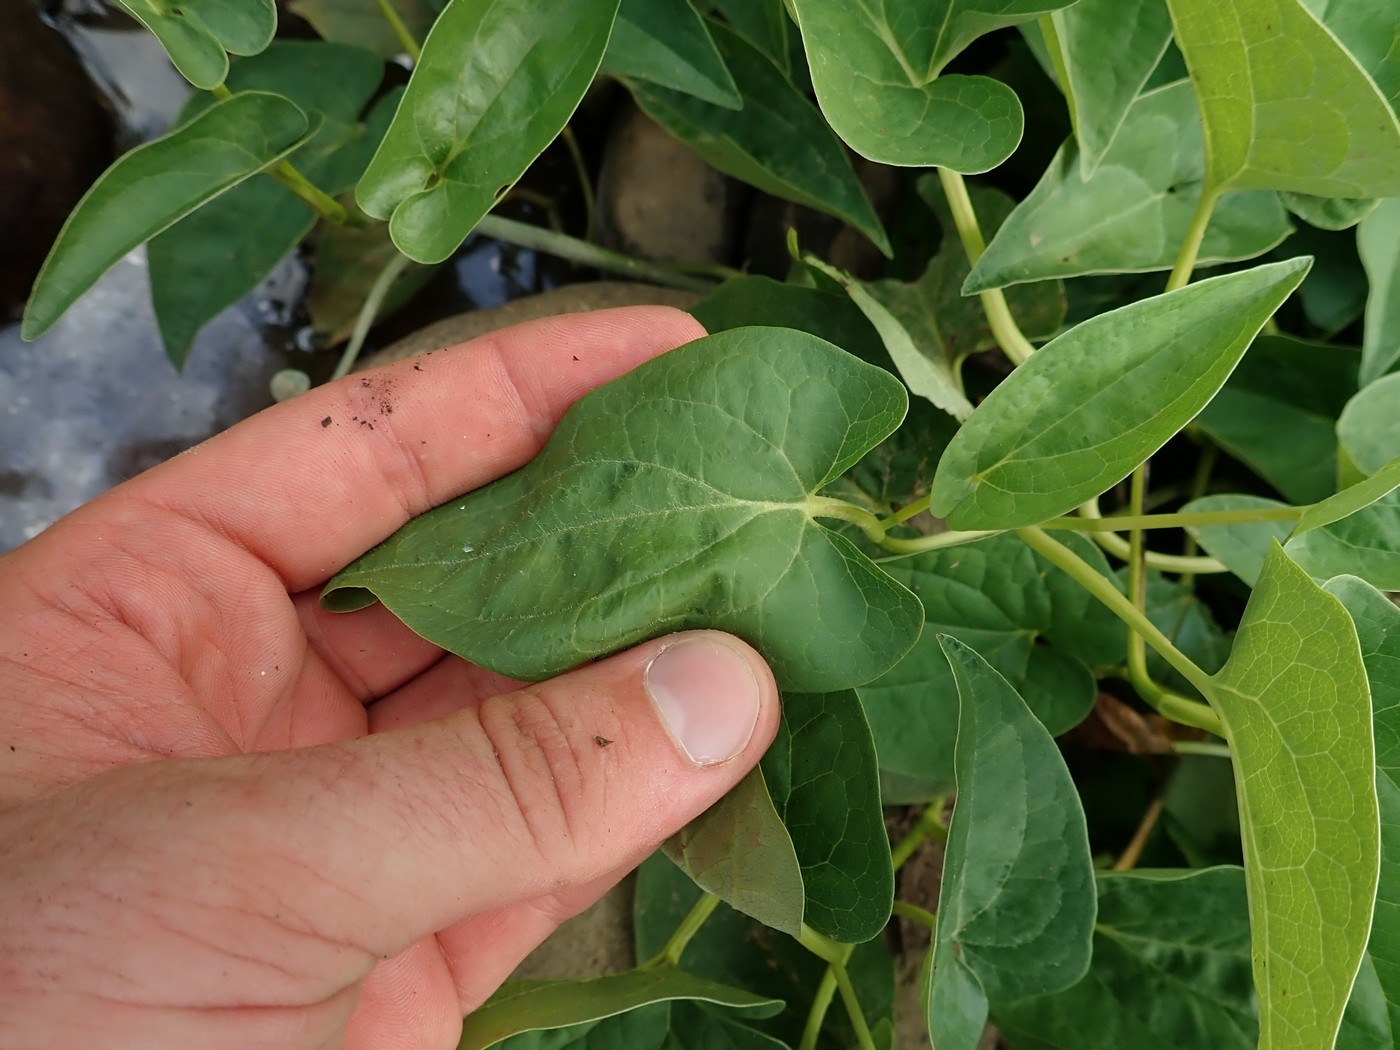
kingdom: Plantae
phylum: Tracheophyta
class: Magnoliopsida
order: Piperales
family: Saururaceae
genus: Saururus
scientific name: Saururus cernuus
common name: Lizard's-tail
